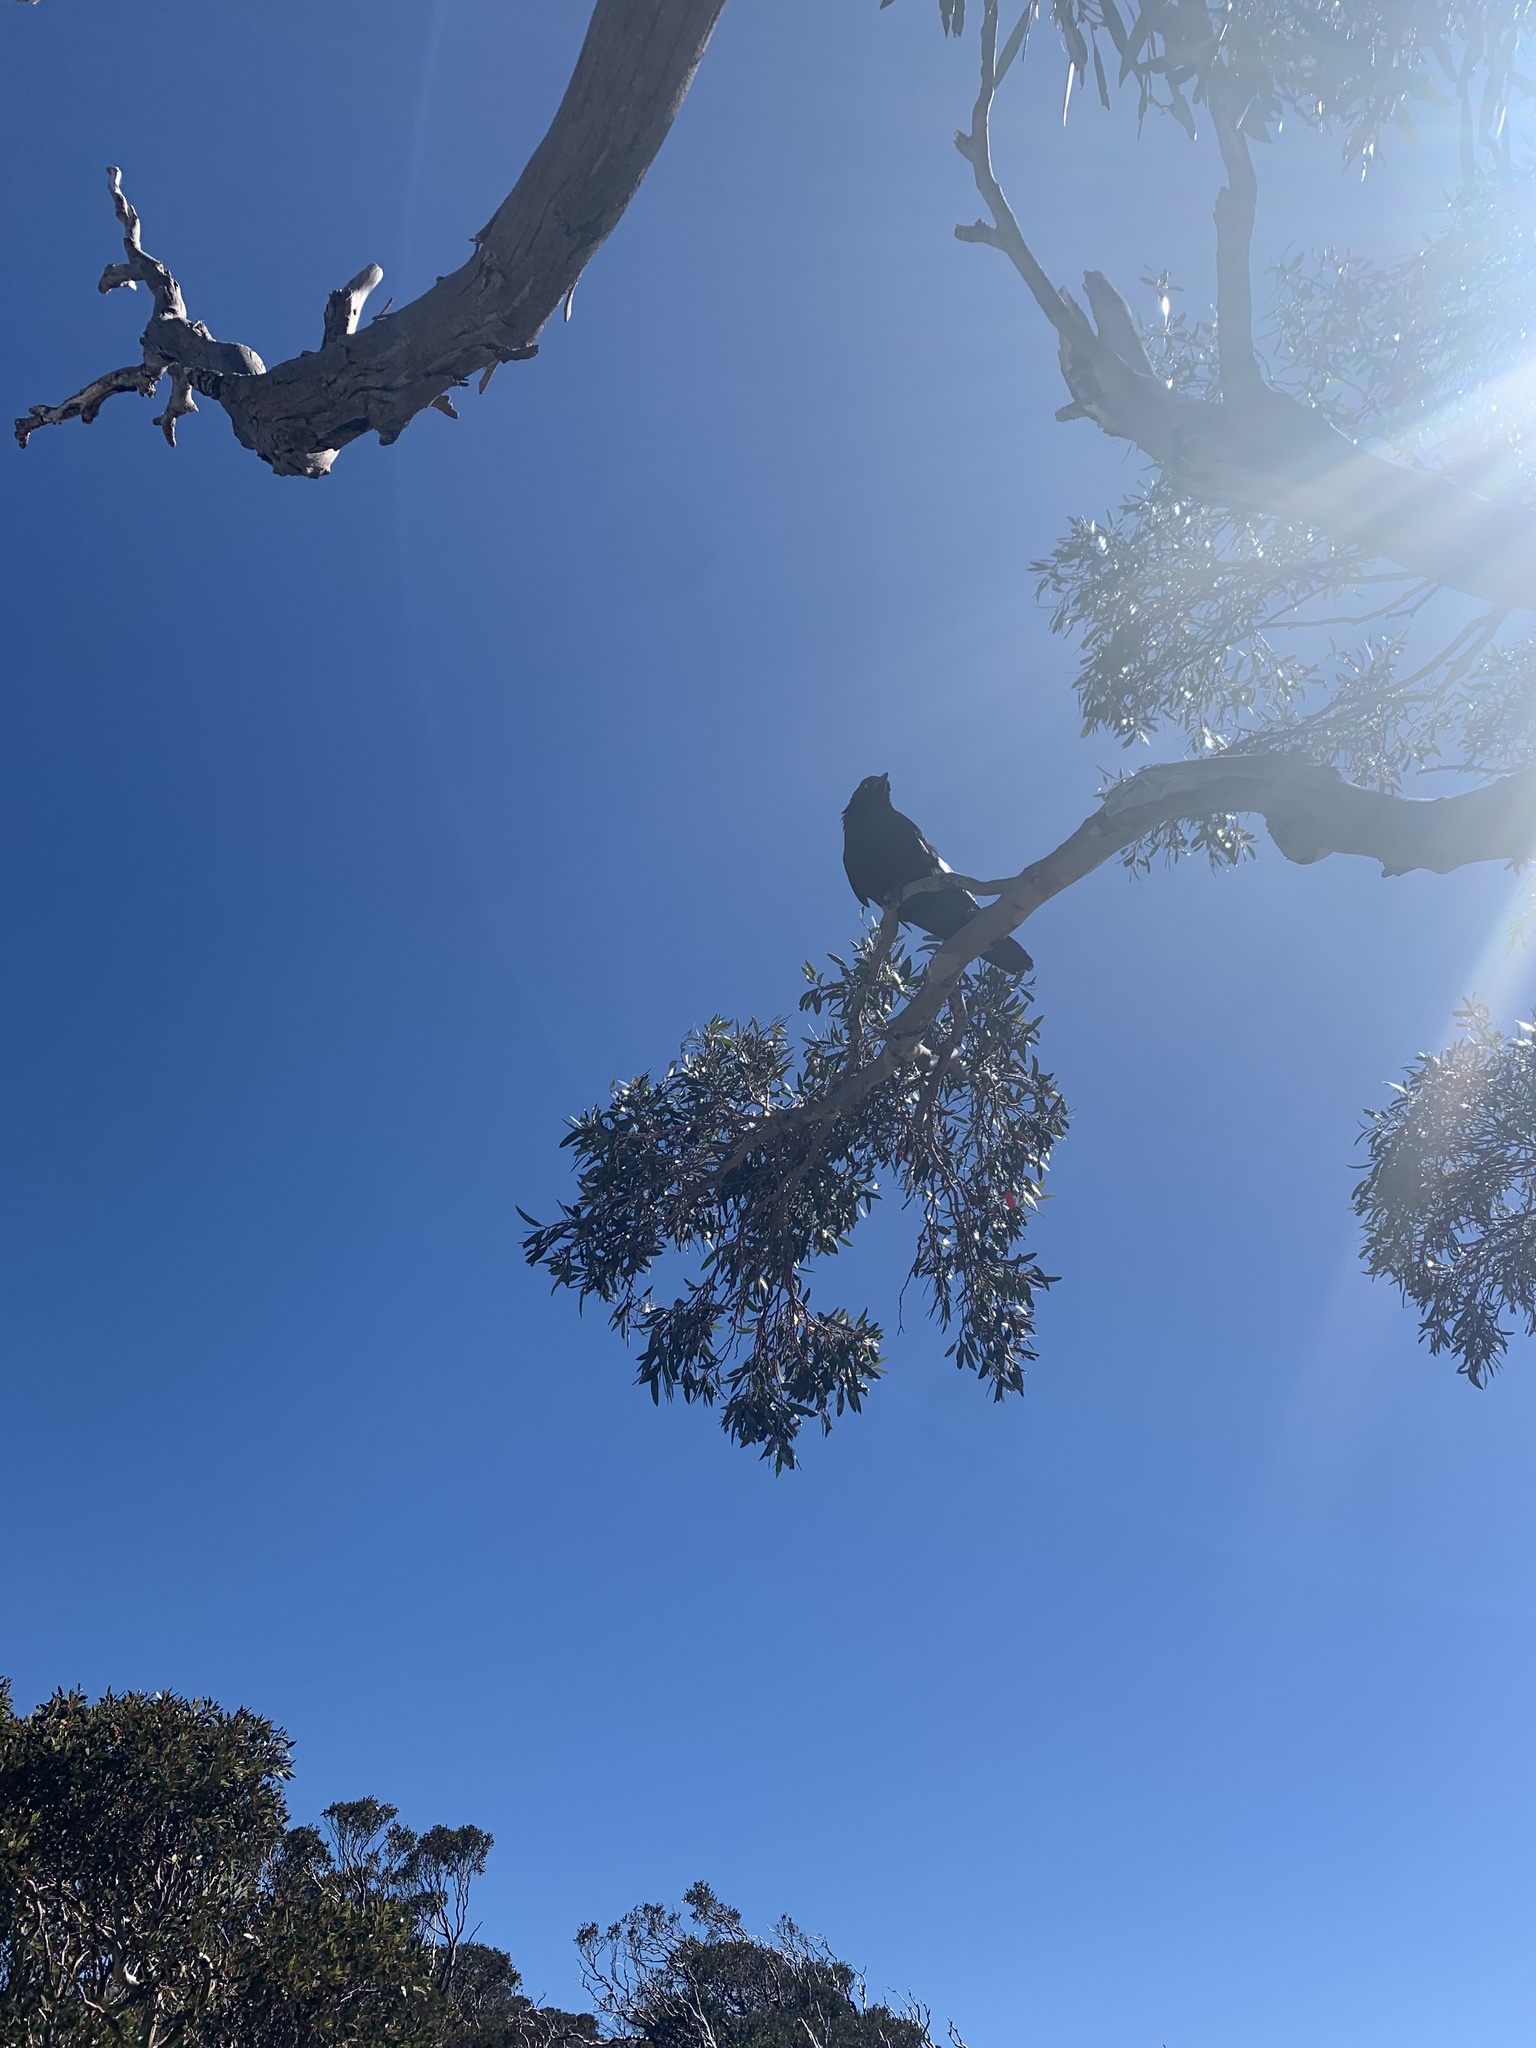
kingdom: Animalia
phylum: Chordata
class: Aves
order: Passeriformes
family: Corvidae
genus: Corvus
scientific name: Corvus coronoides
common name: Australian raven
